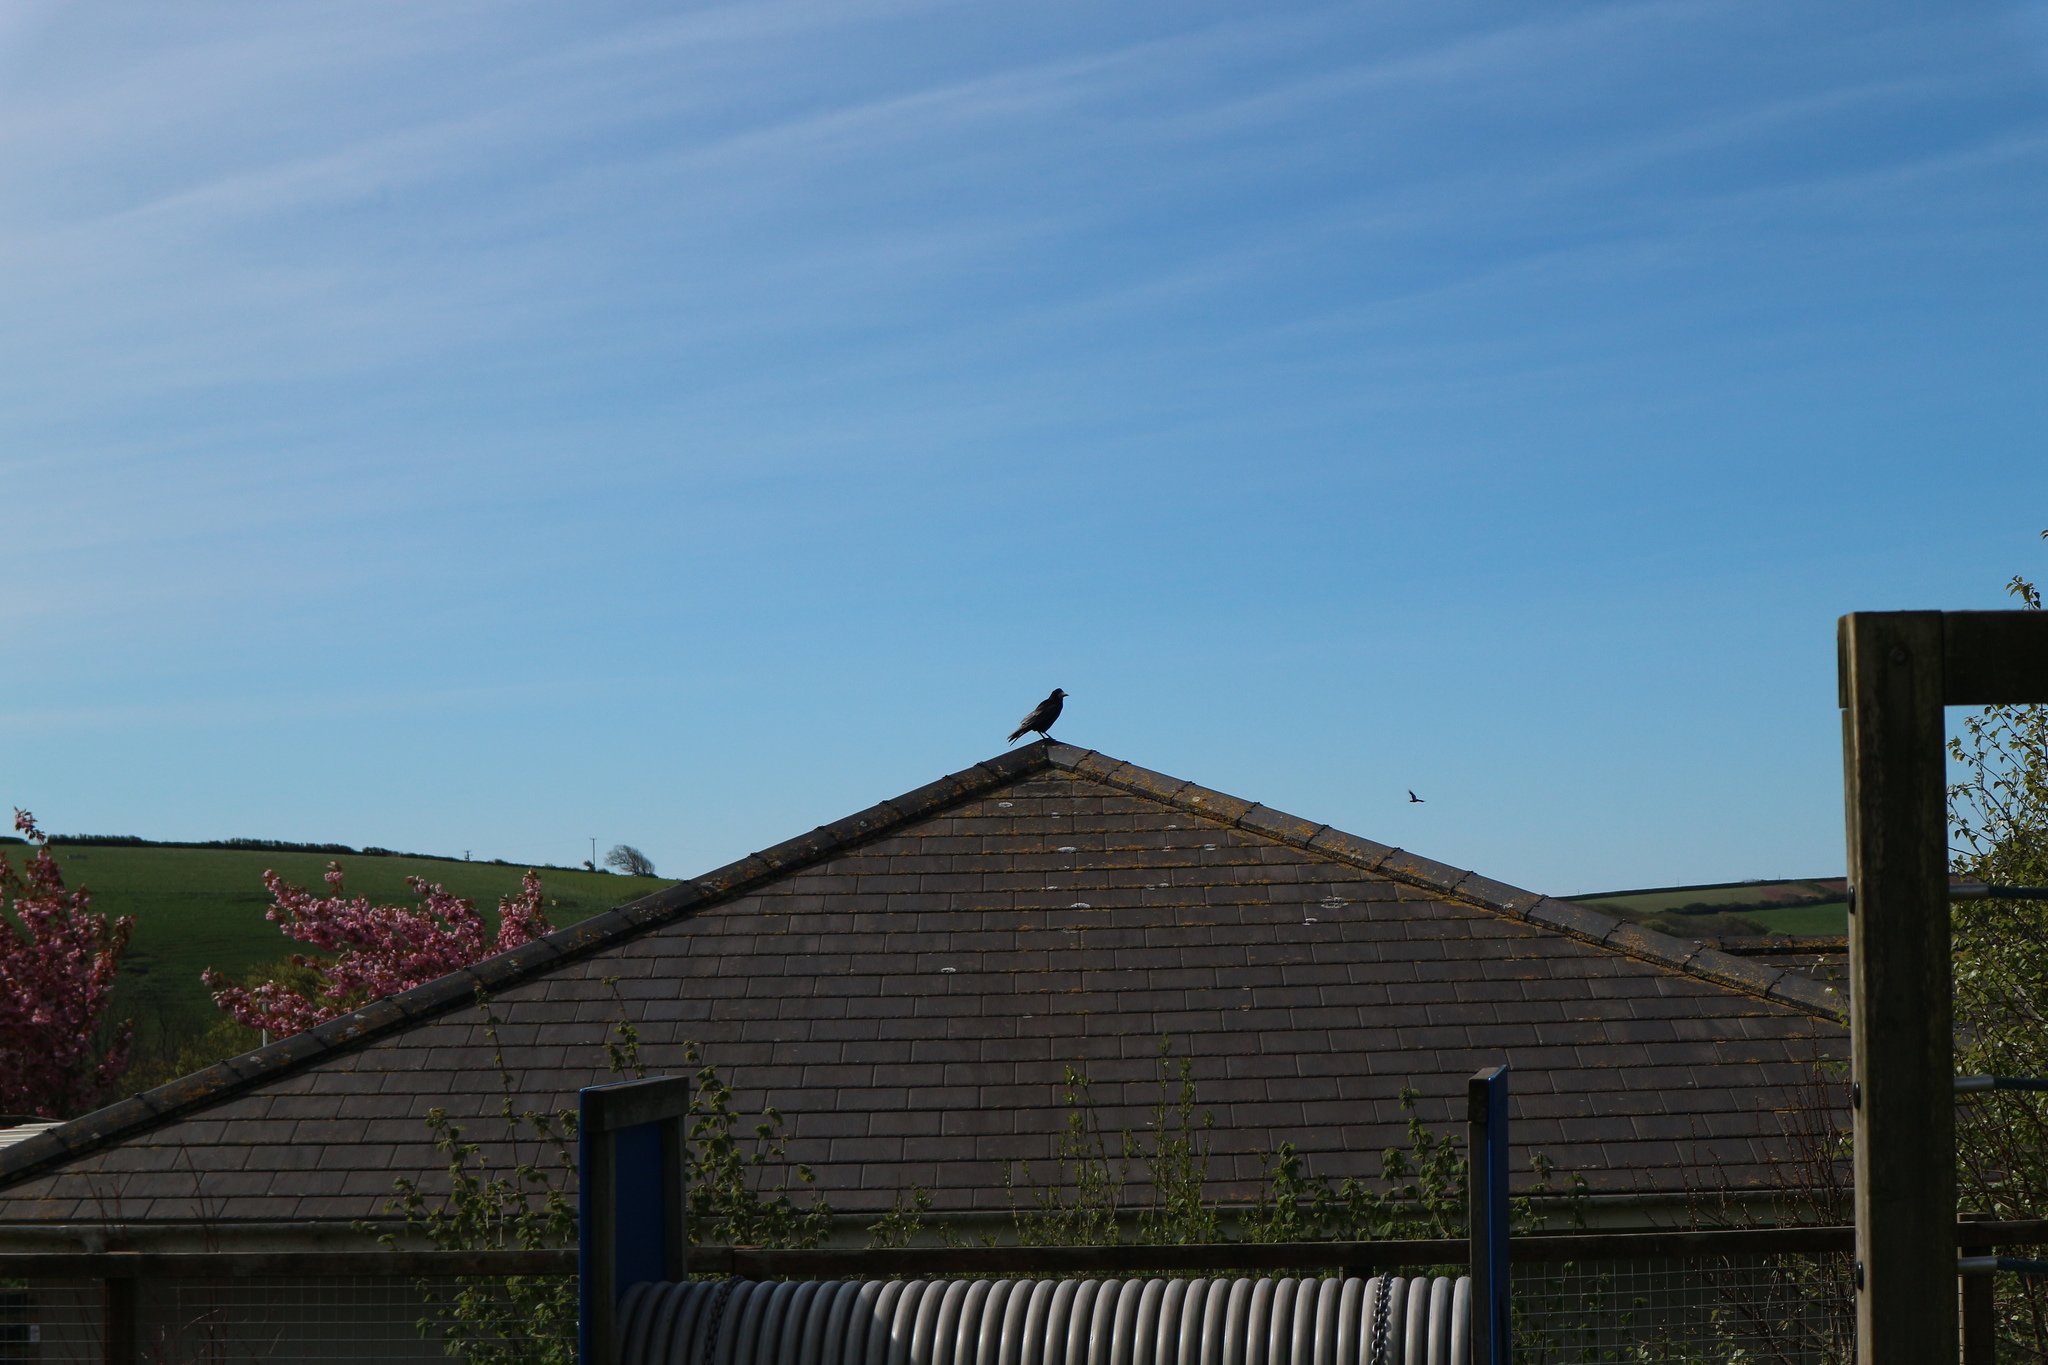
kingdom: Animalia
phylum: Chordata
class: Aves
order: Passeriformes
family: Corvidae
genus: Corvus
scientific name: Corvus frugilegus
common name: Rook
